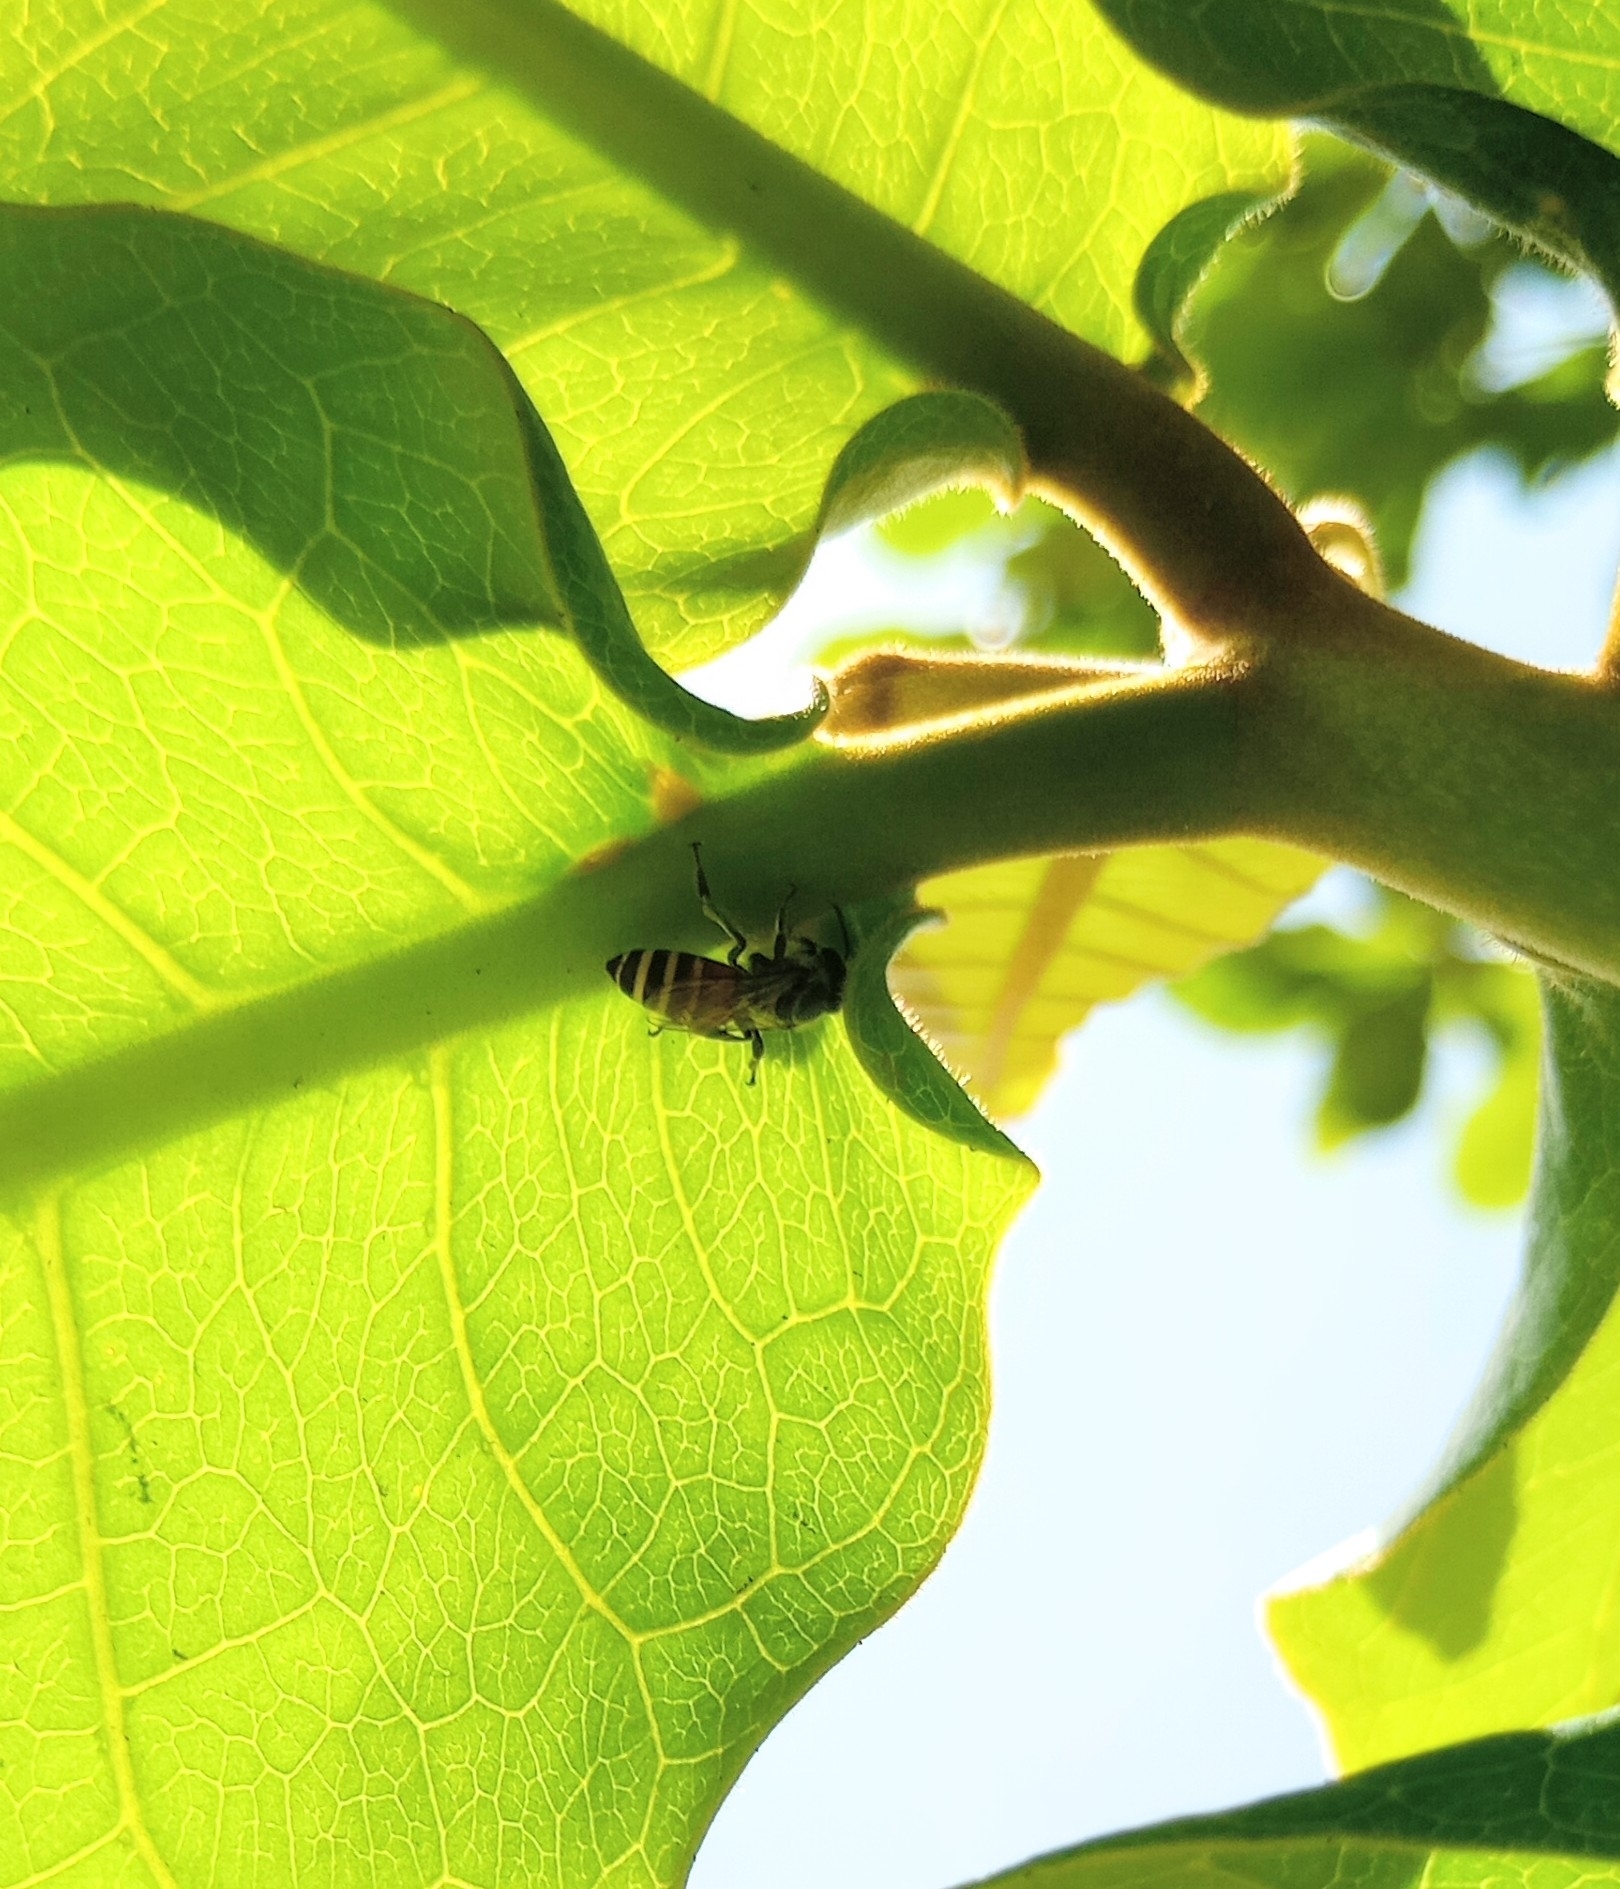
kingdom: Animalia
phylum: Arthropoda
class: Insecta
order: Hymenoptera
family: Apidae
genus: Apis
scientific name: Apis florea
